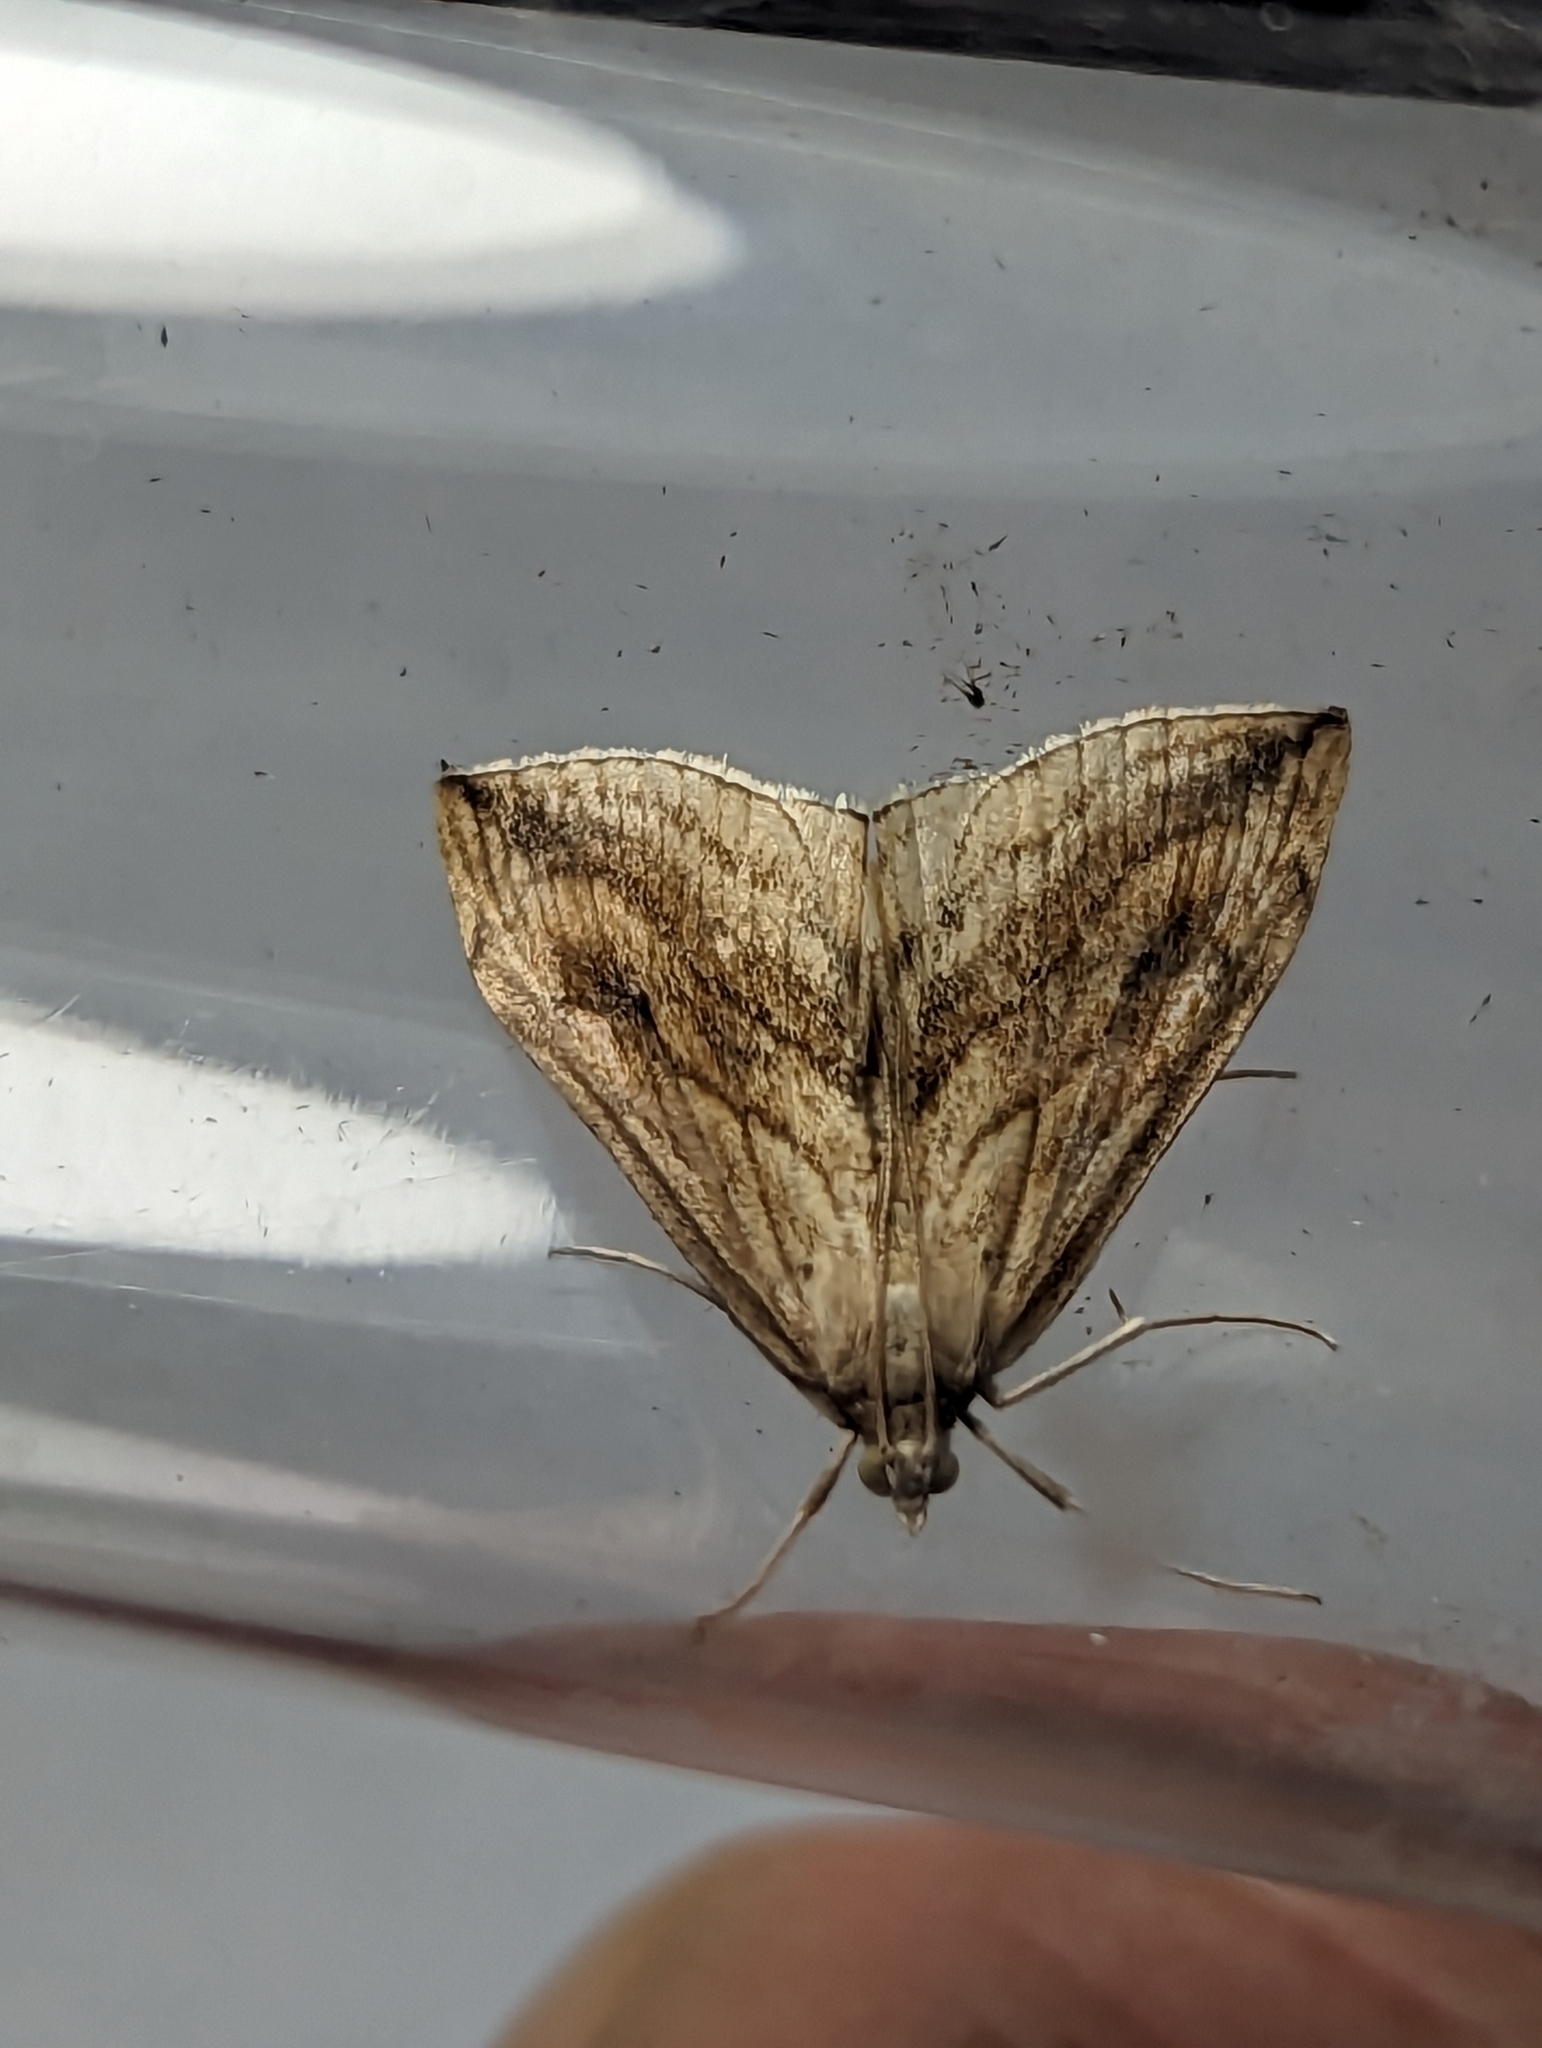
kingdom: Animalia
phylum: Arthropoda
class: Insecta
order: Lepidoptera
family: Crambidae
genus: Evergestis
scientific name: Evergestis forficalis
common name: Garden pebble
